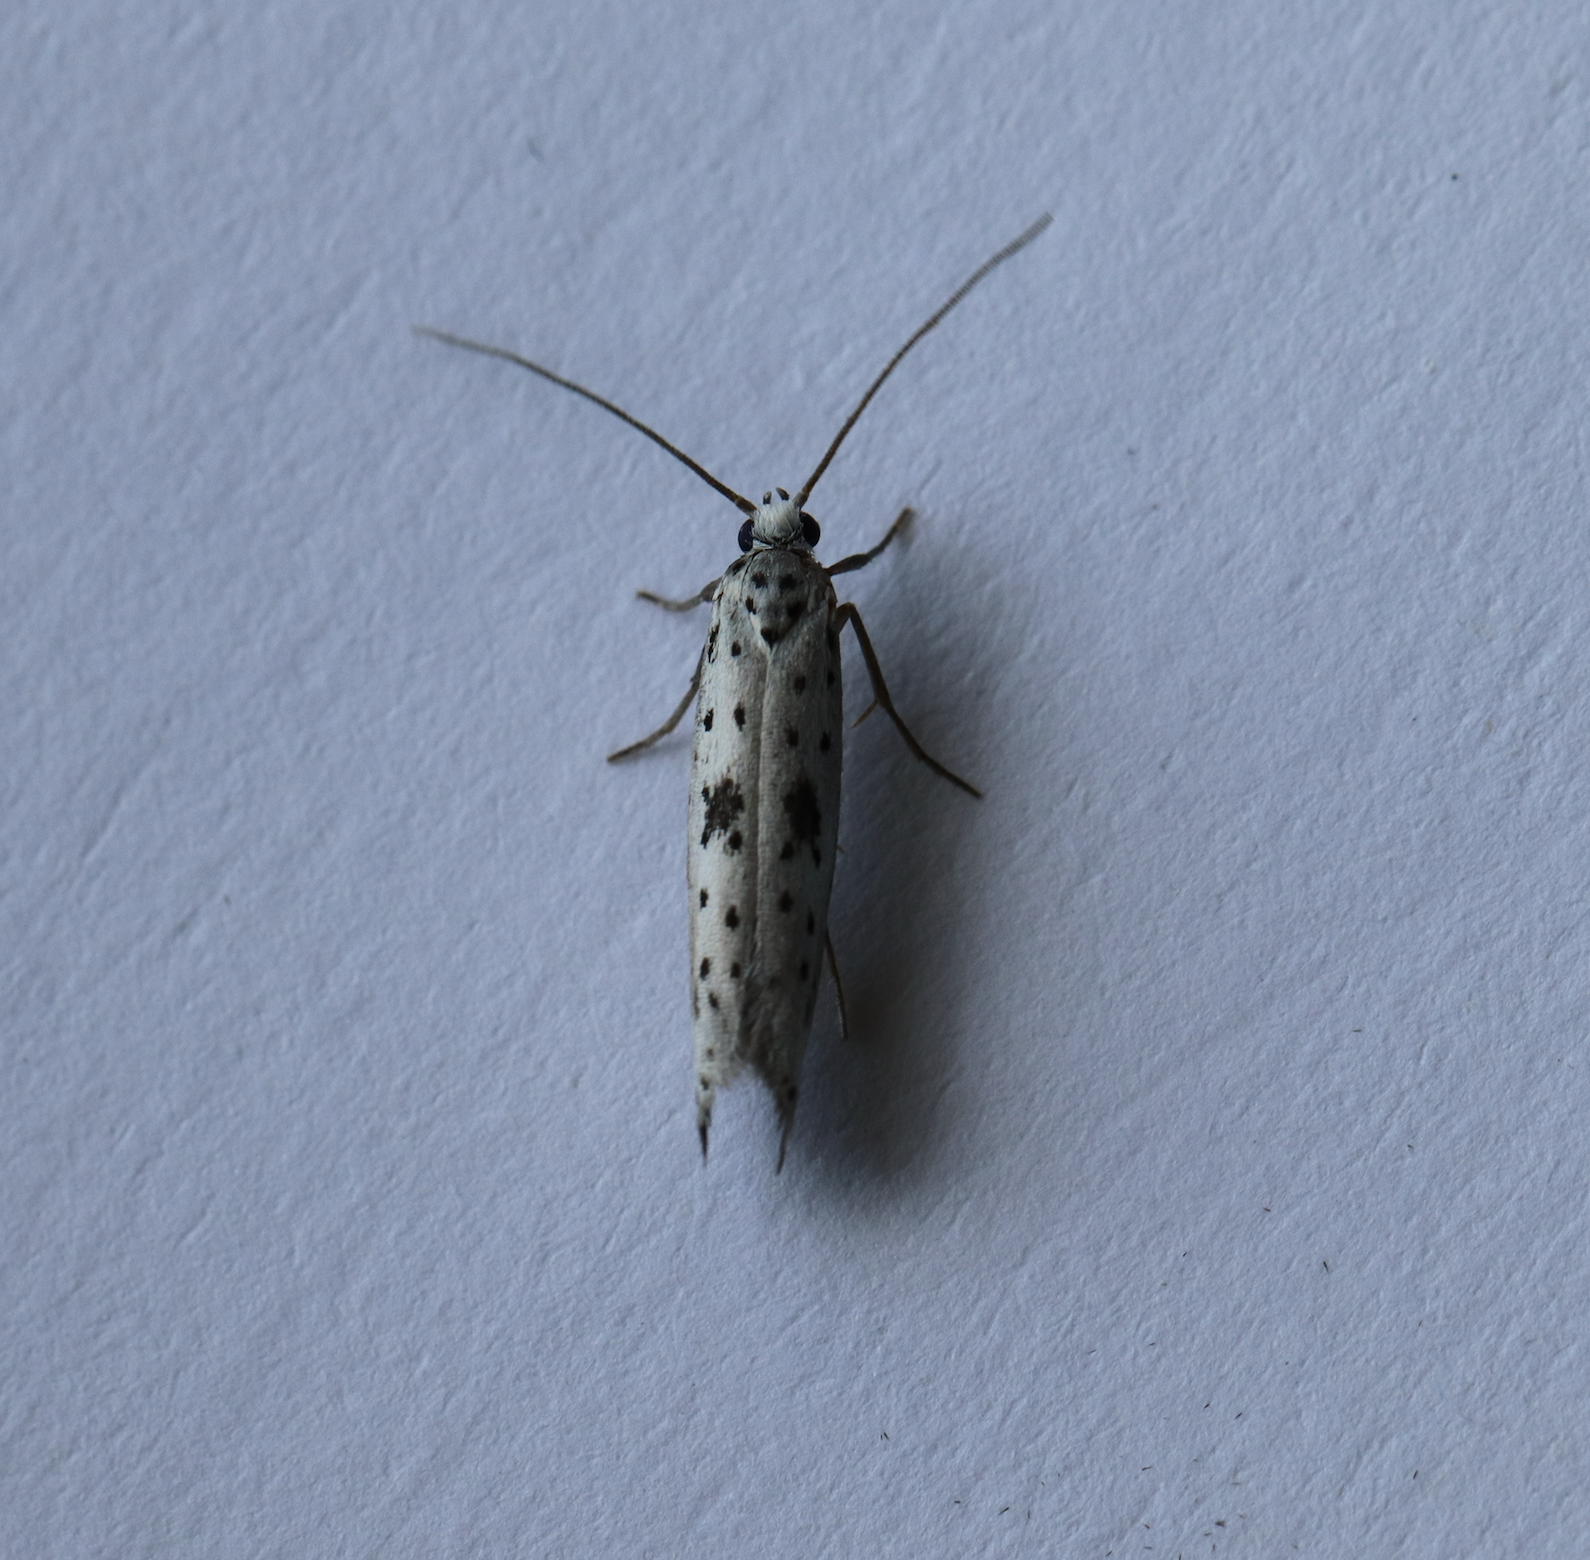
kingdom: Animalia
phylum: Arthropoda
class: Insecta
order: Lepidoptera
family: Yponomeutidae
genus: Yponomeuta
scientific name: Yponomeuta plumbella
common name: Black-tipped ermine
